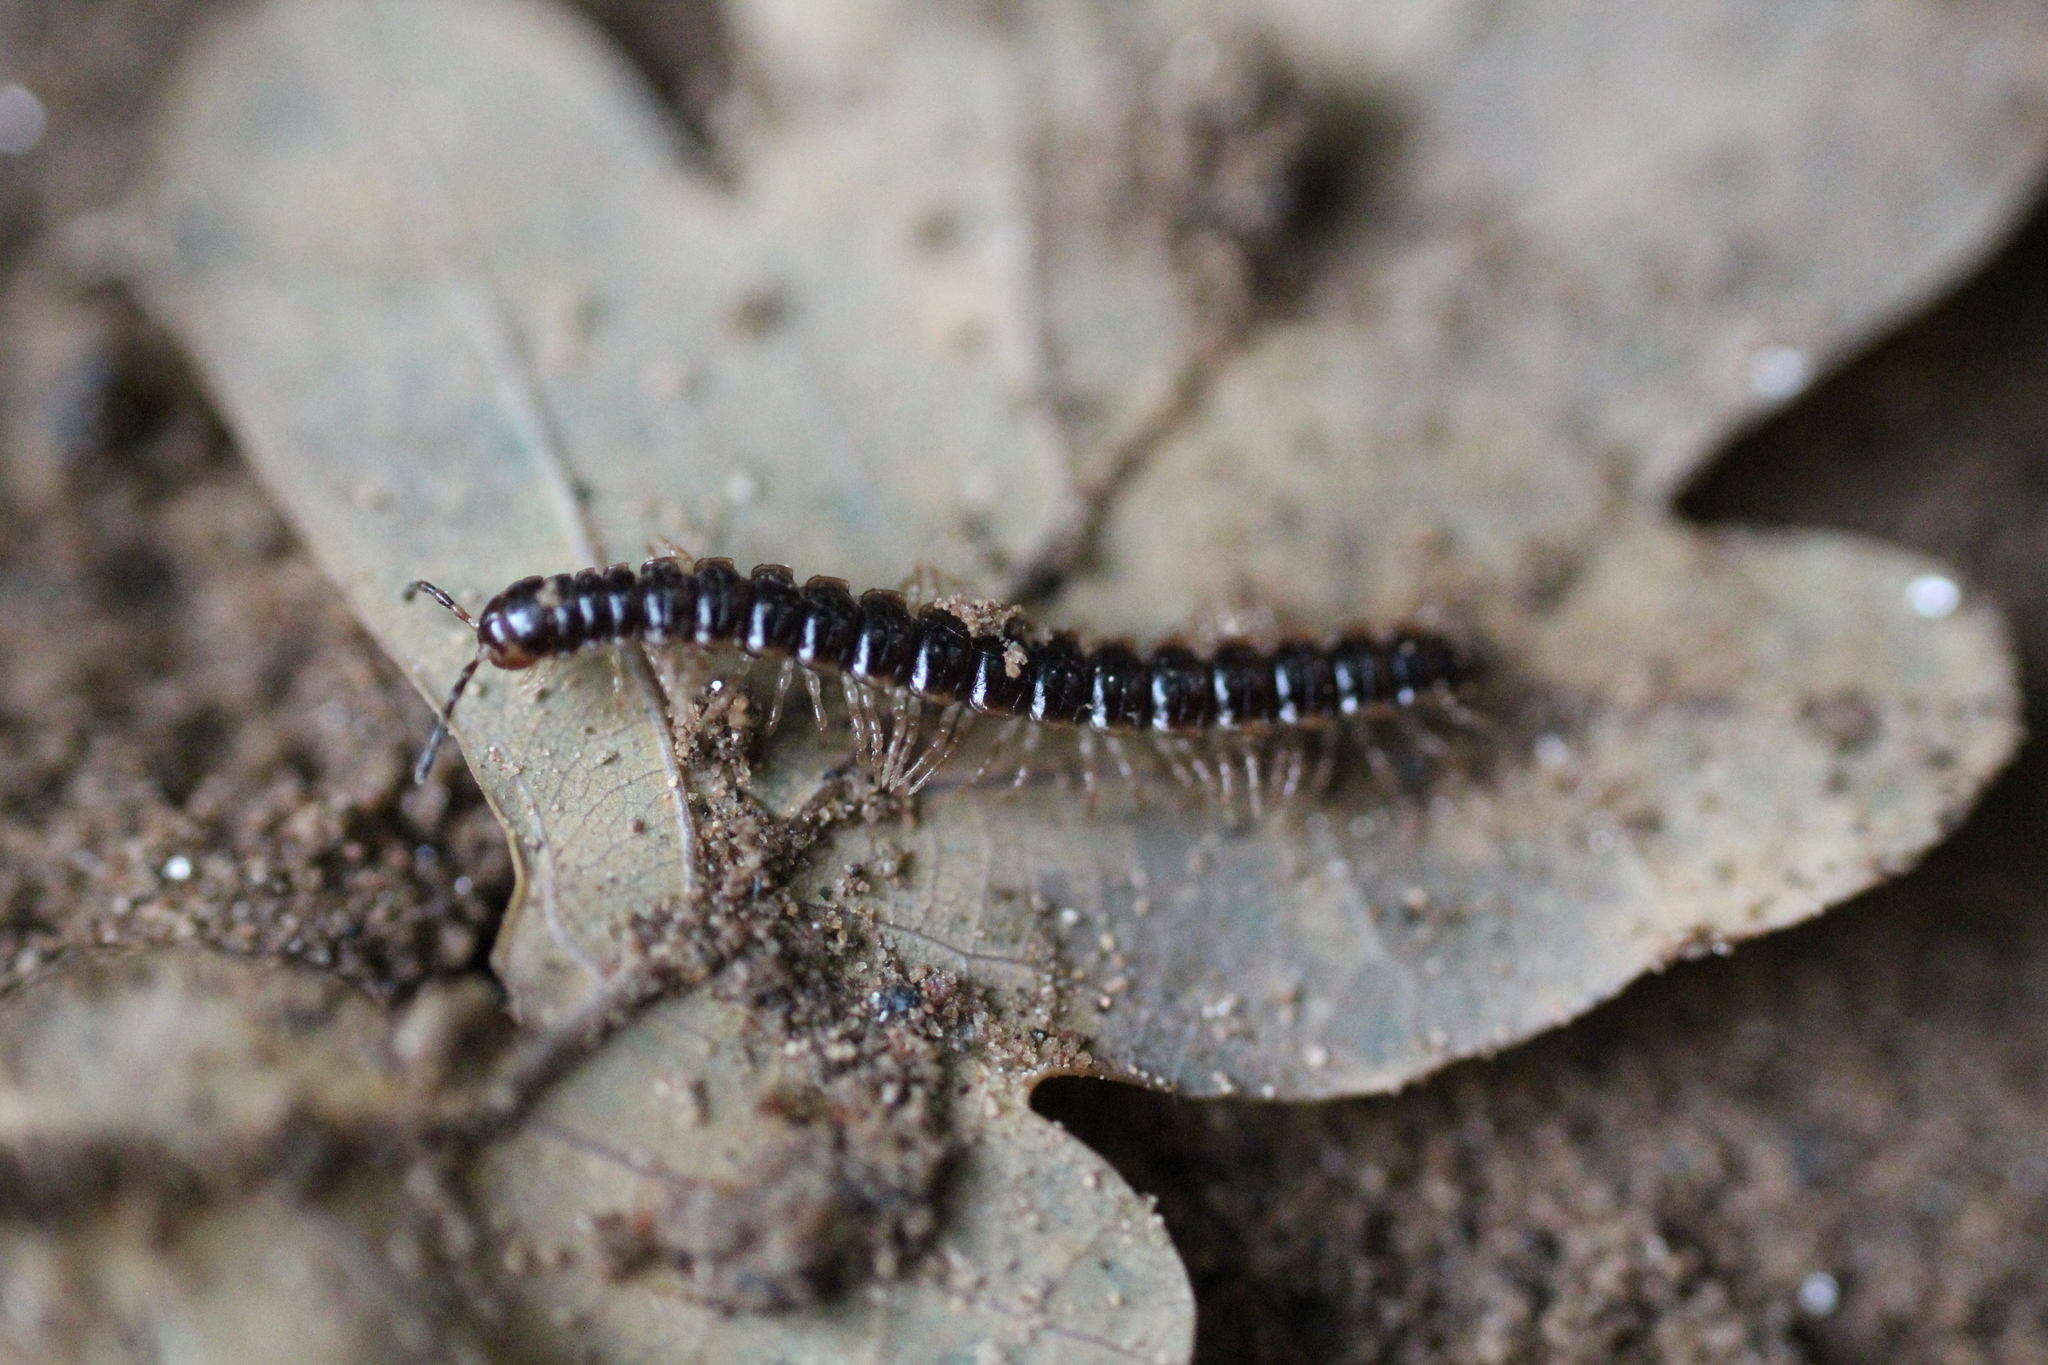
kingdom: Animalia
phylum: Arthropoda
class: Diplopoda
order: Polydesmida
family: Paradoxosomatidae
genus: Oxidus
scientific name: Oxidus gracilis
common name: Greenhouse millipede
